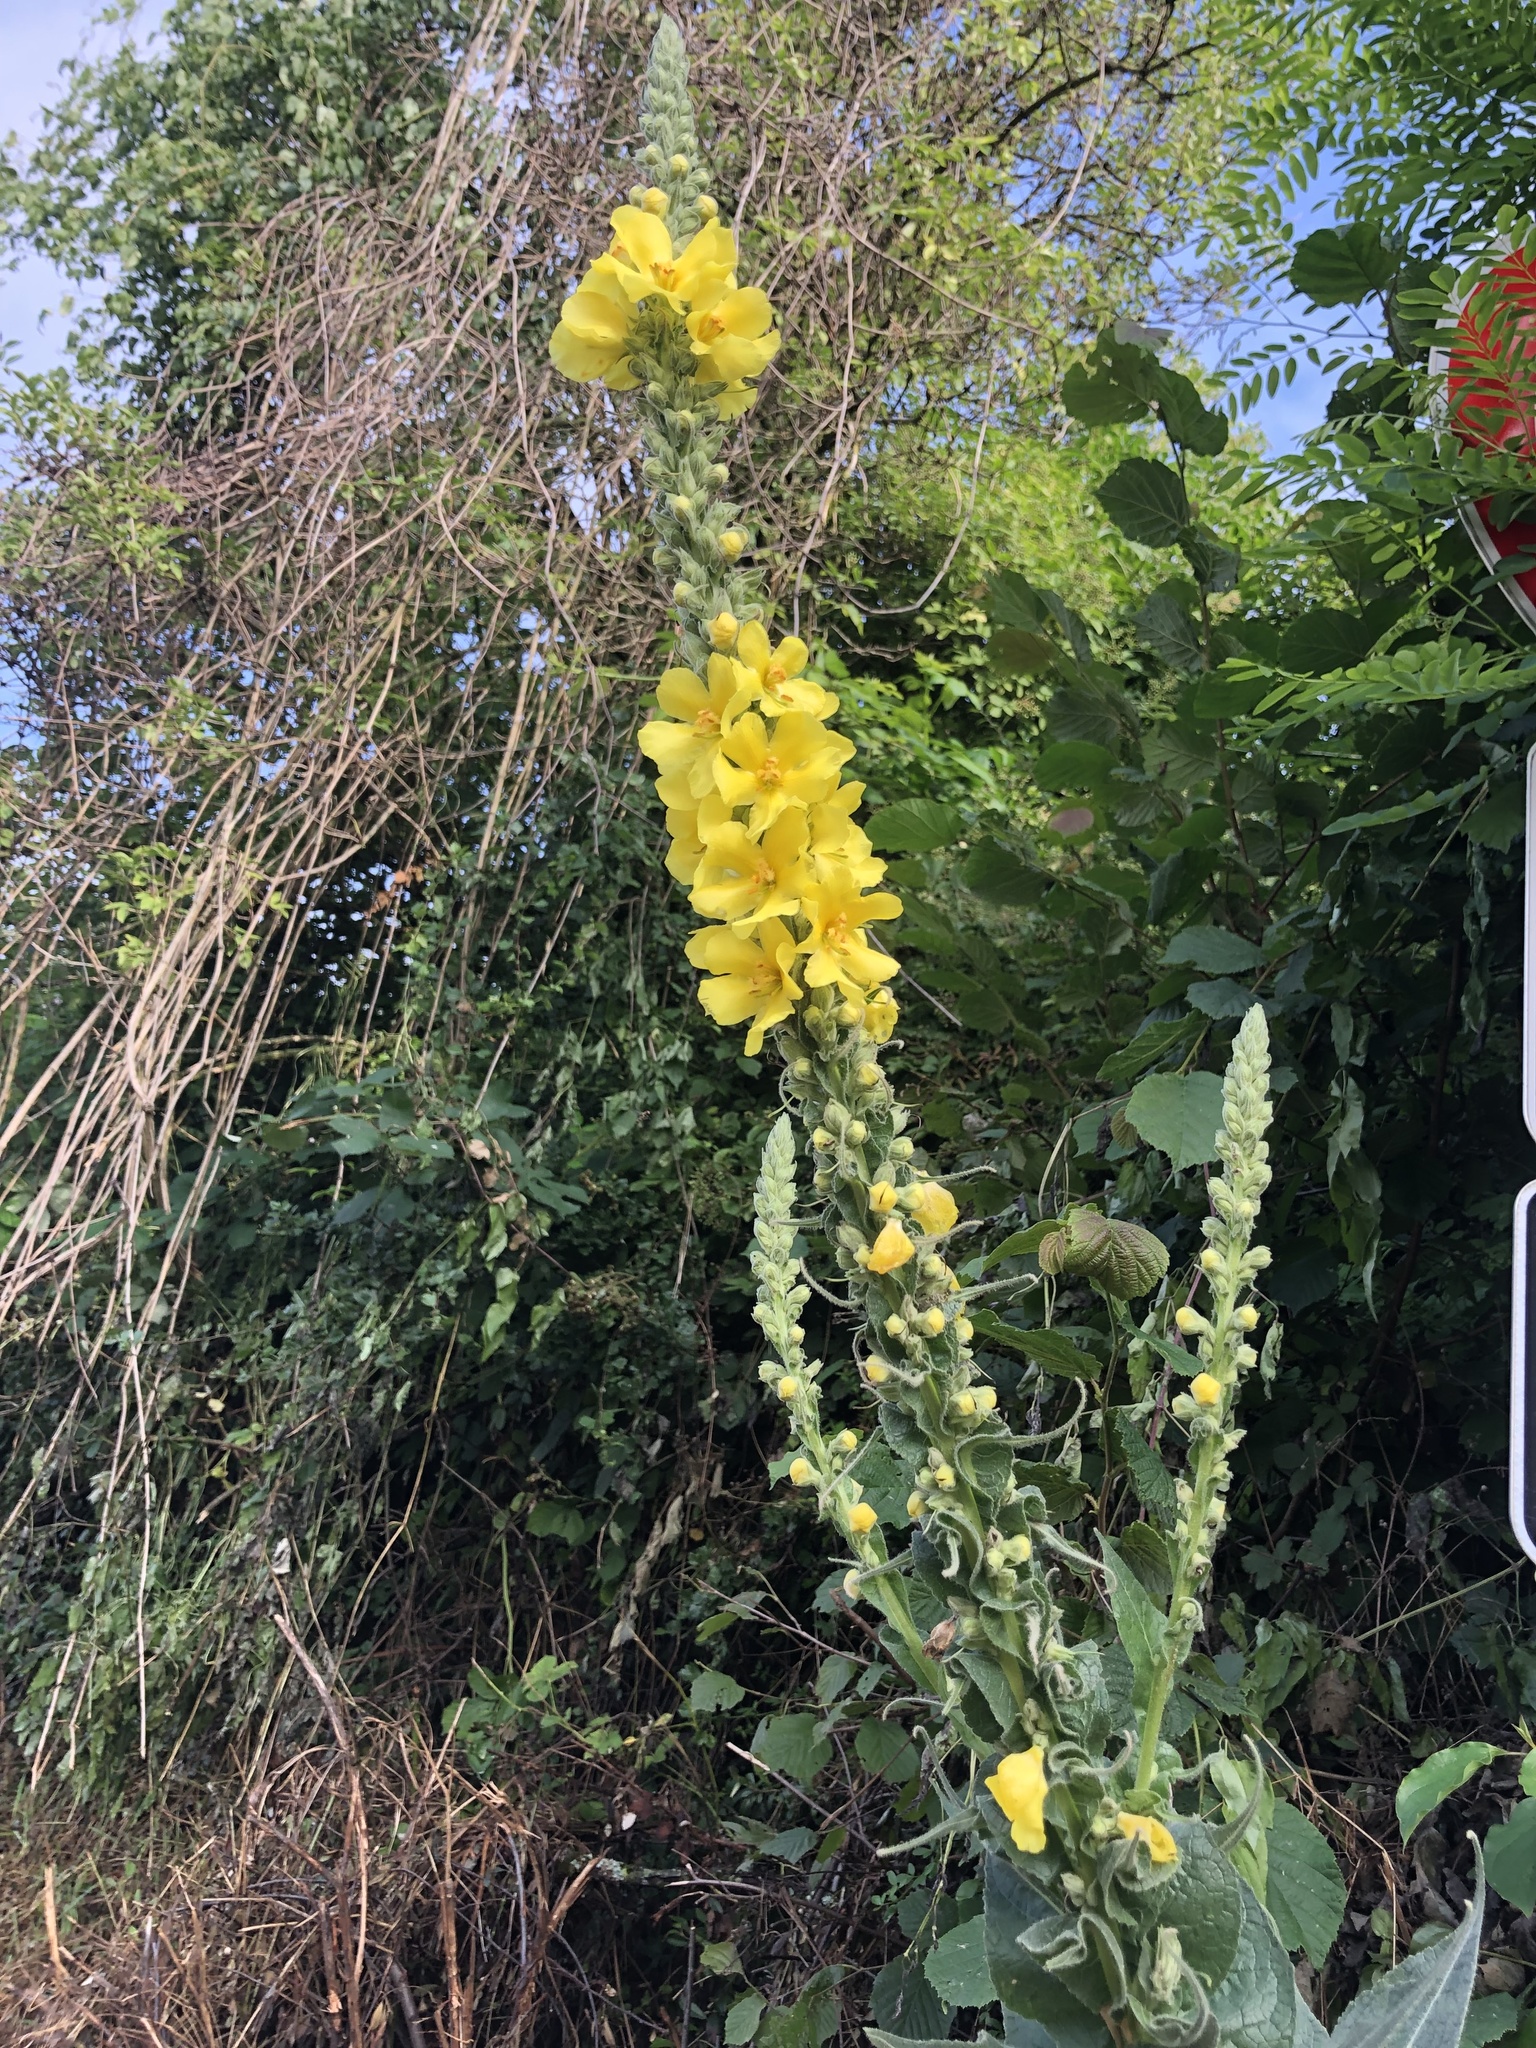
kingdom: Plantae
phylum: Tracheophyta
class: Magnoliopsida
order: Lamiales
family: Scrophulariaceae
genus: Verbascum
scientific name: Verbascum densiflorum
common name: Dense-flowered mullein
